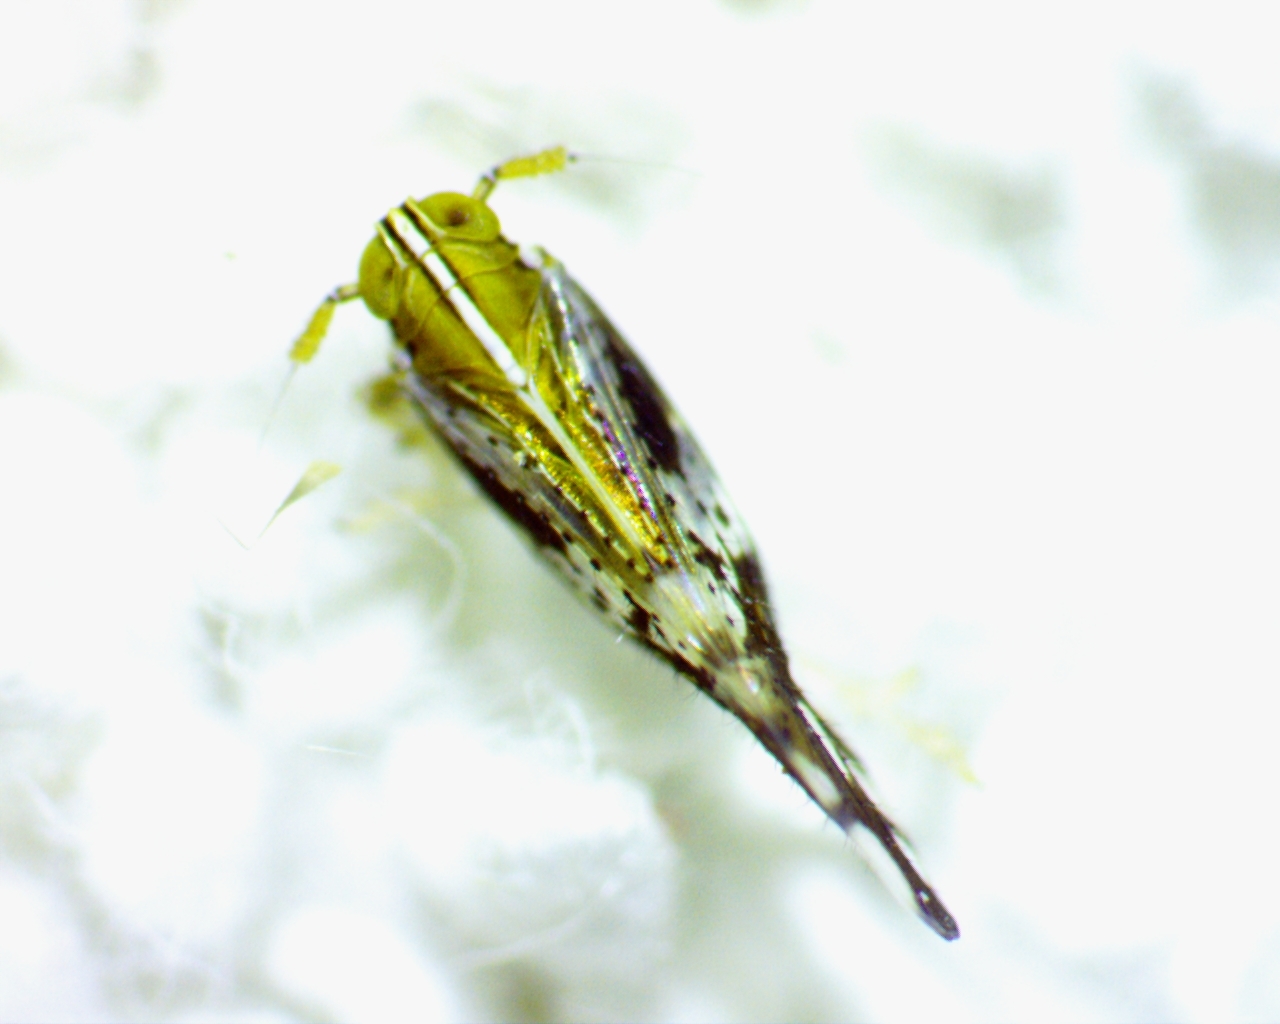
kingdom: Animalia
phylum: Arthropoda
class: Insecta
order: Hemiptera
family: Delphacidae
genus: Liburniella
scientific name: Liburniella ornata
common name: Ornate planthopper
